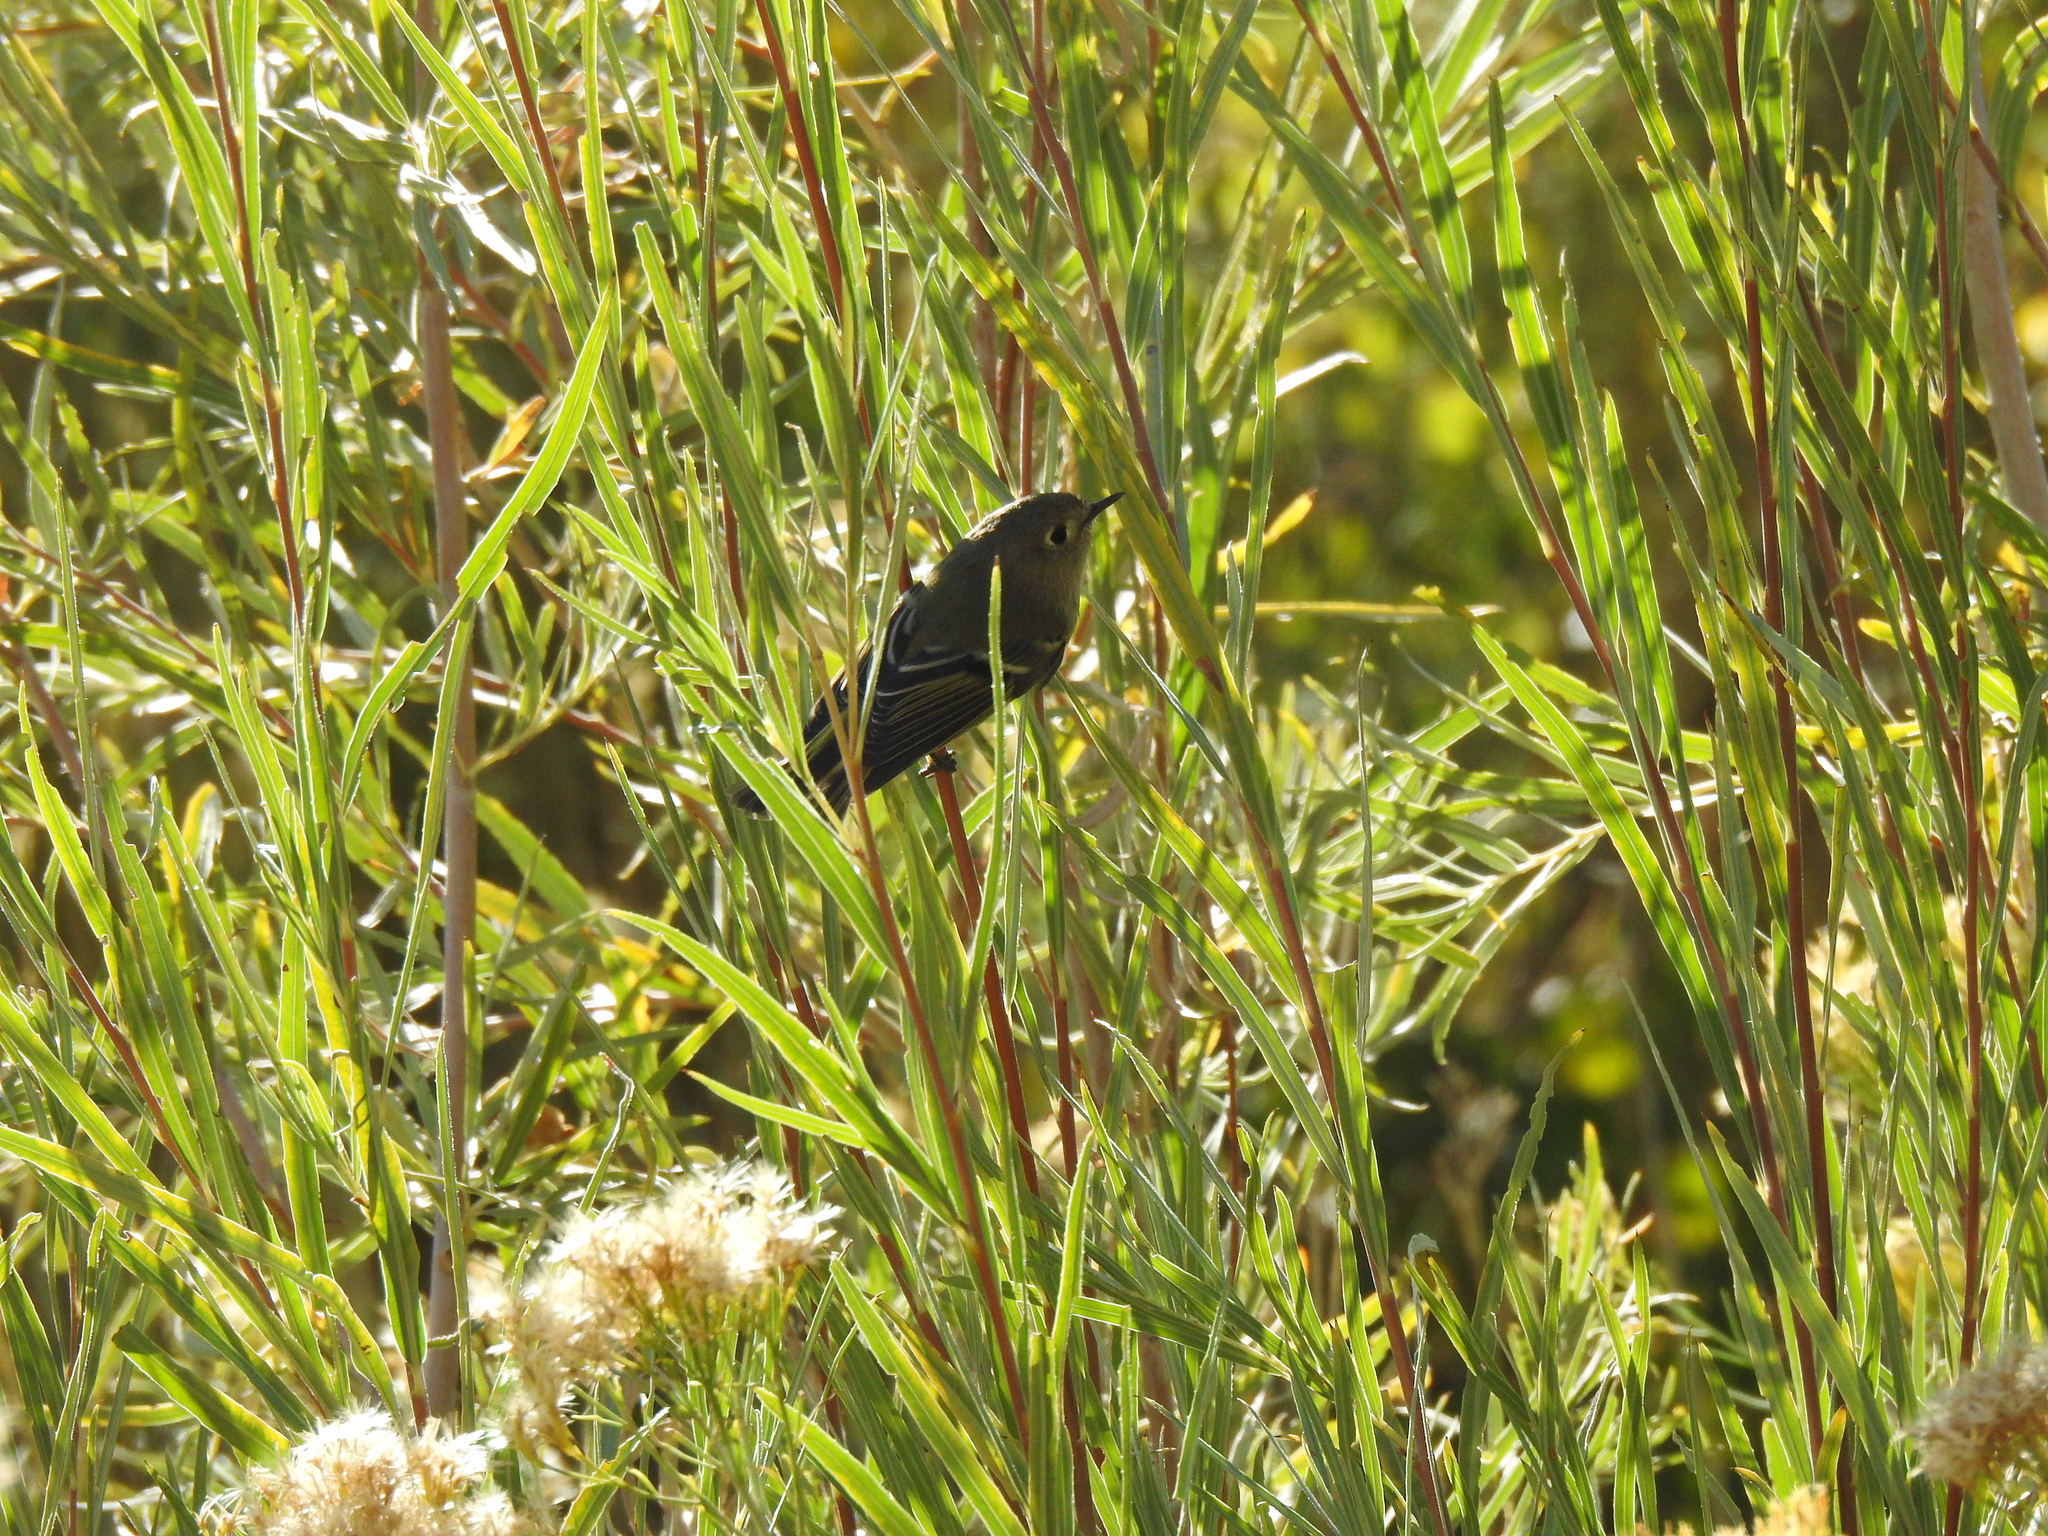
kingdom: Animalia
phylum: Chordata
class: Aves
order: Passeriformes
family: Regulidae
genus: Regulus
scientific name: Regulus calendula
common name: Ruby-crowned kinglet
